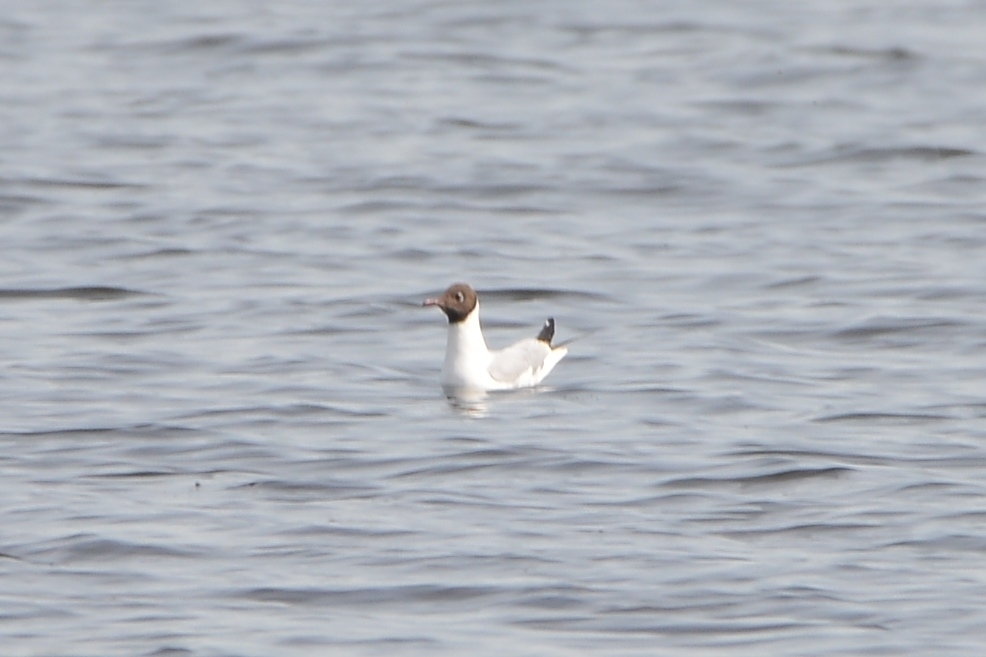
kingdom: Animalia
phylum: Chordata
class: Aves
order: Charadriiformes
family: Laridae
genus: Chroicocephalus
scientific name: Chroicocephalus ridibundus
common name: Black-headed gull
